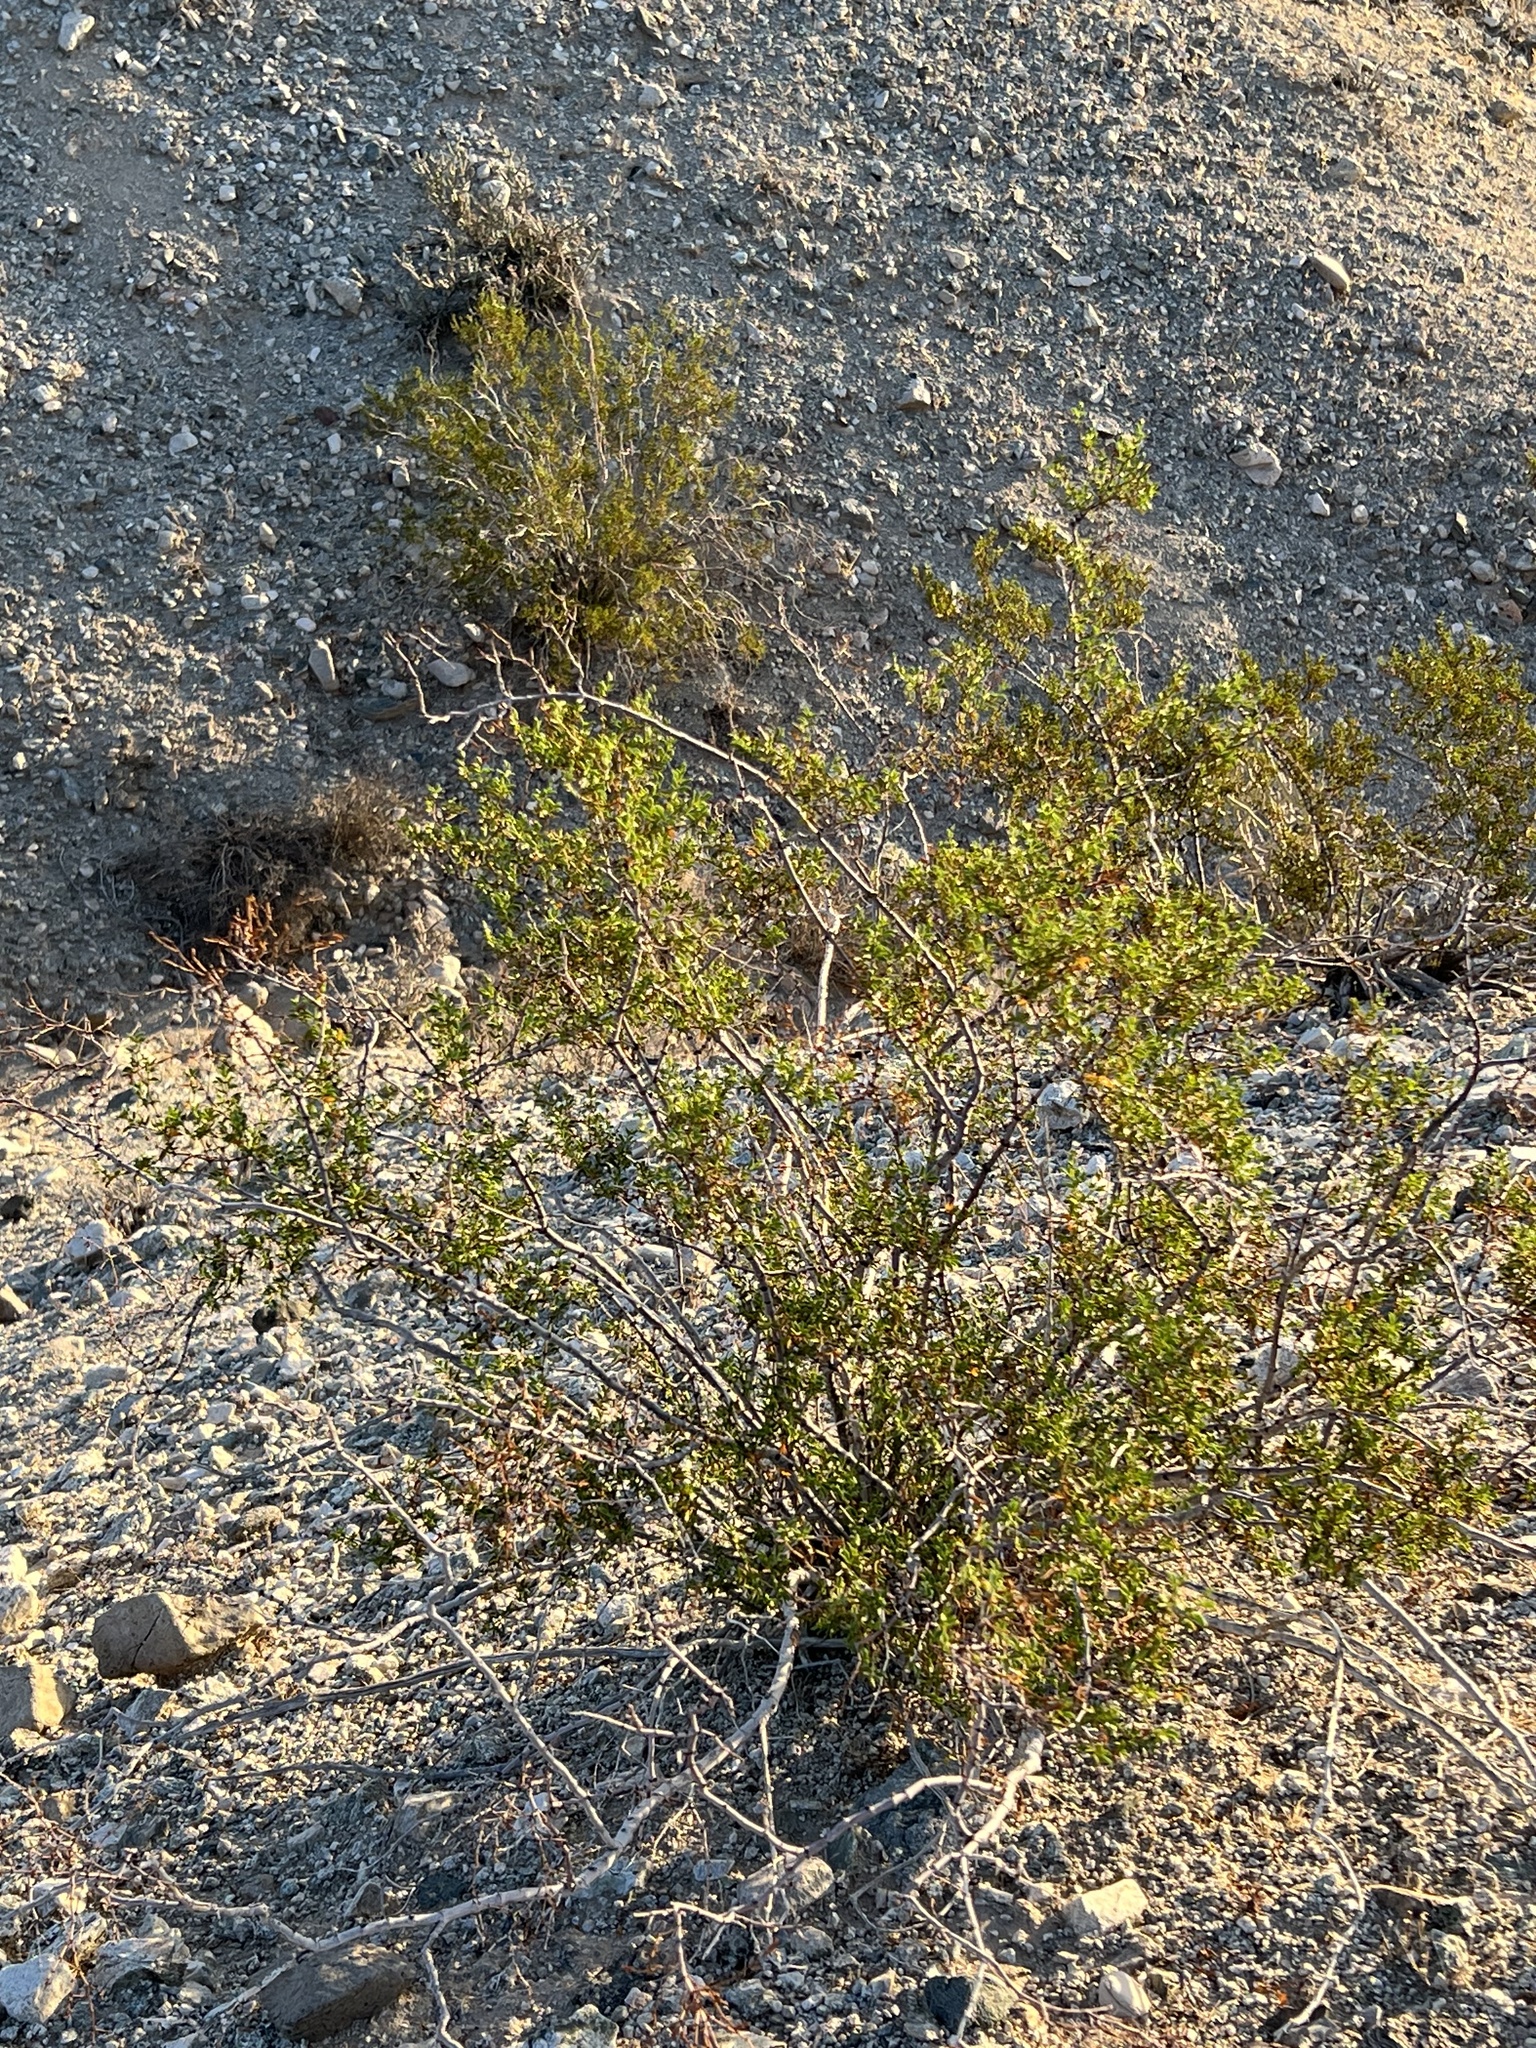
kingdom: Plantae
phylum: Tracheophyta
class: Magnoliopsida
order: Zygophyllales
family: Zygophyllaceae
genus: Larrea
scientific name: Larrea tridentata
